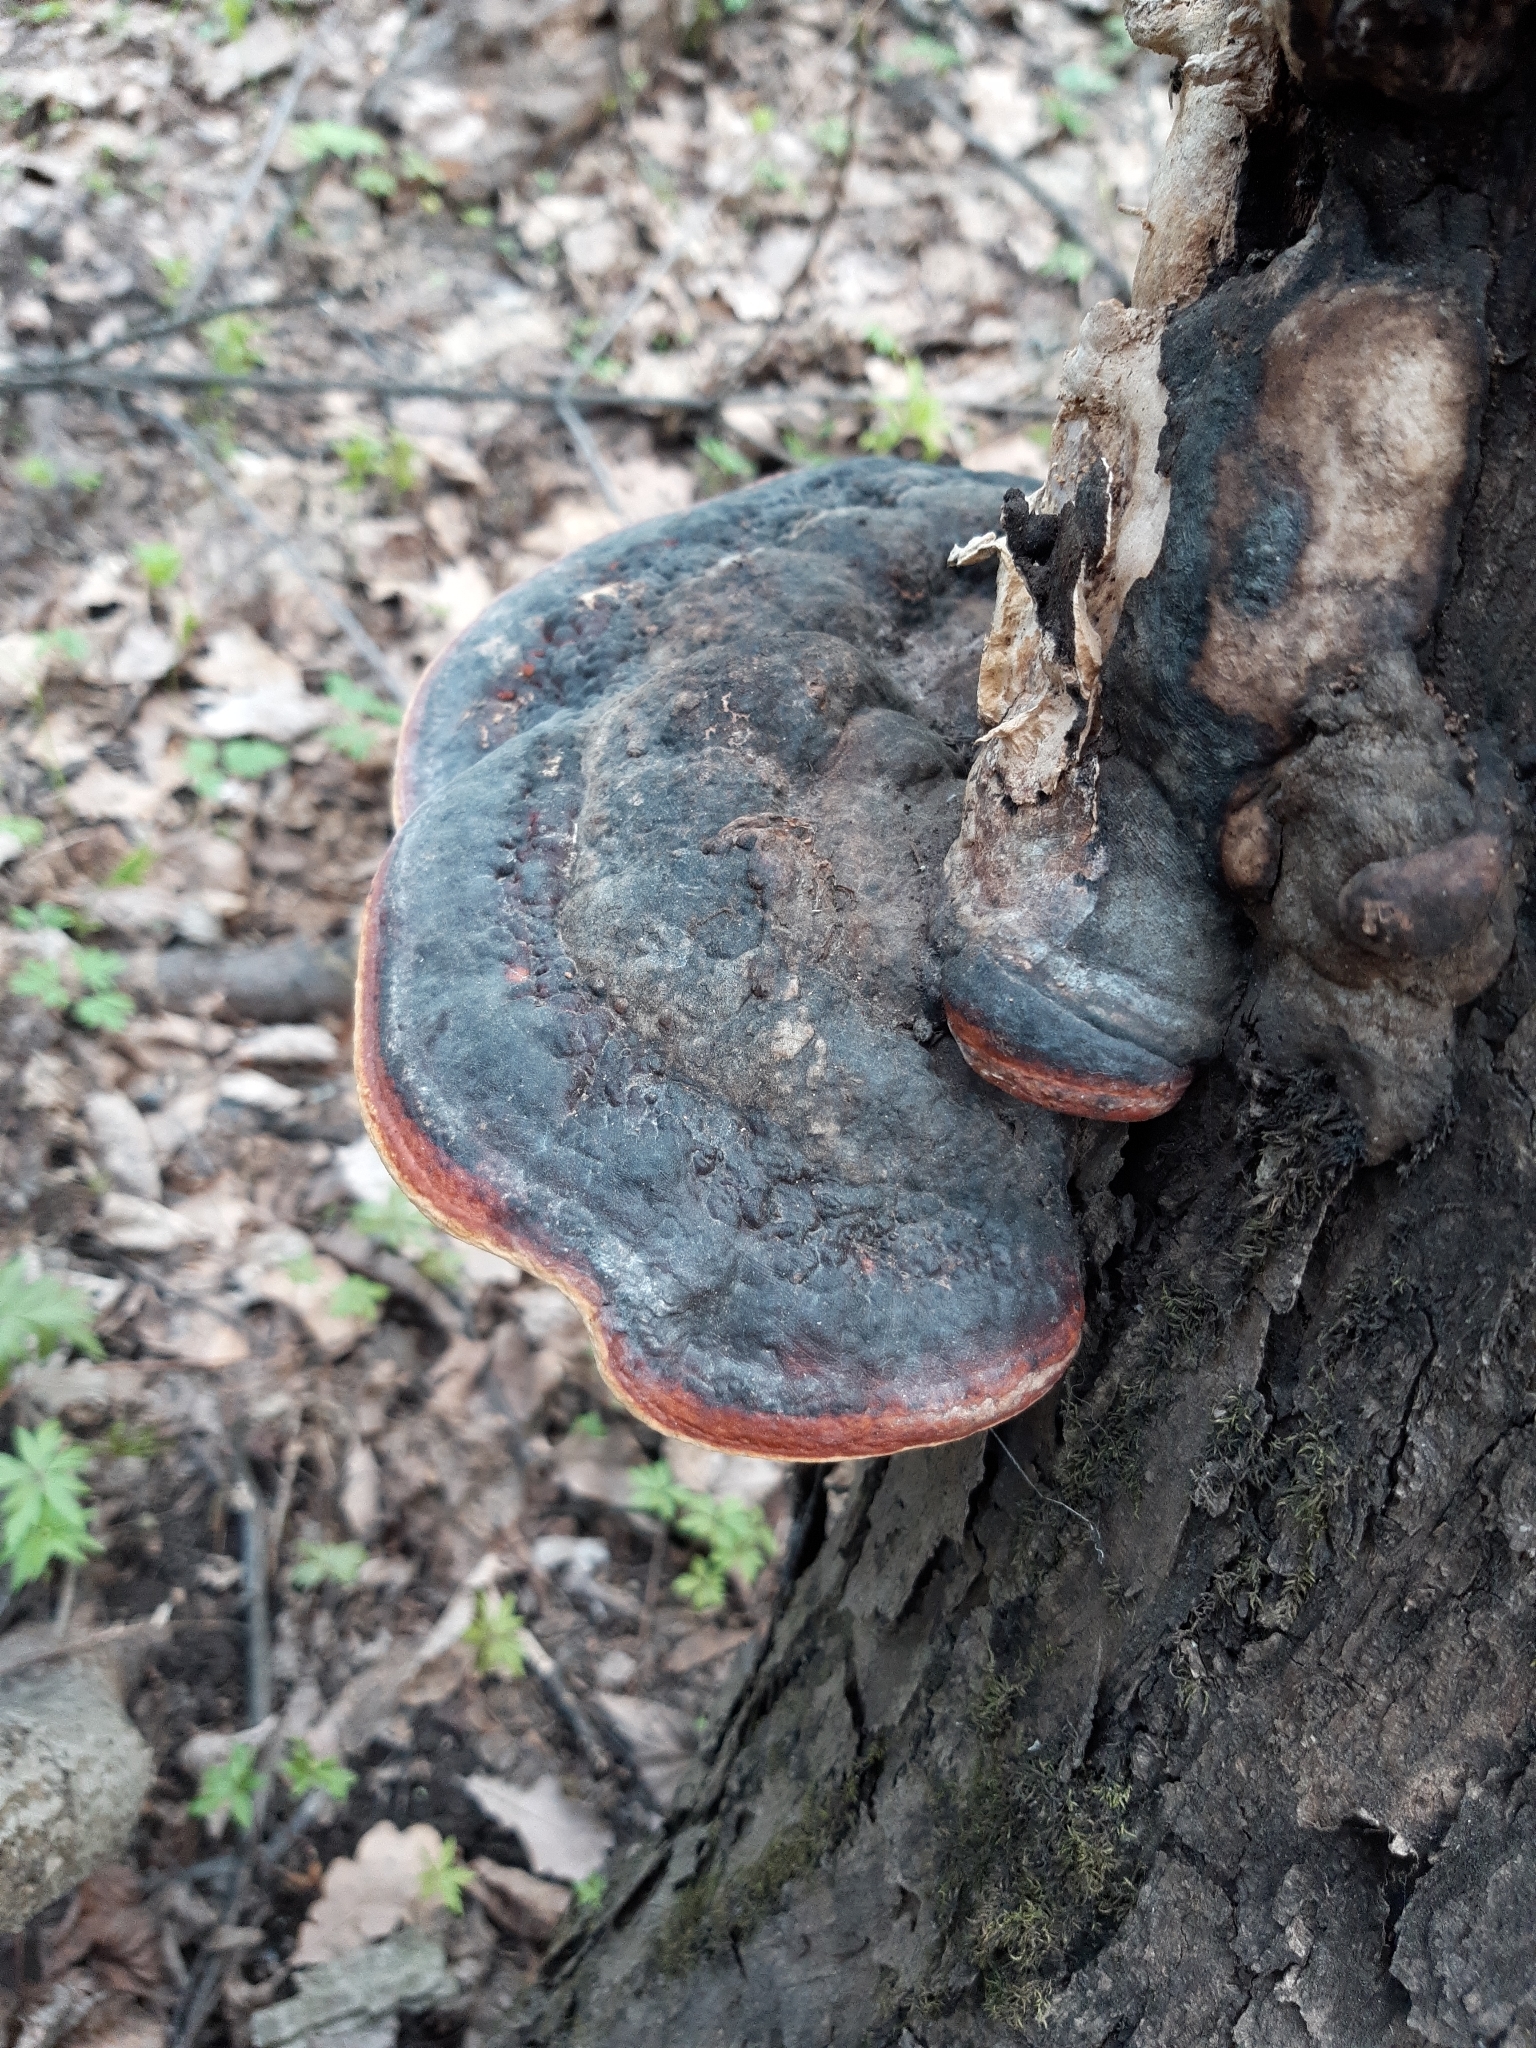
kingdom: Fungi
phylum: Basidiomycota
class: Agaricomycetes
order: Polyporales
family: Fomitopsidaceae
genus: Fomitopsis
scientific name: Fomitopsis pinicola
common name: Red-belted bracket
